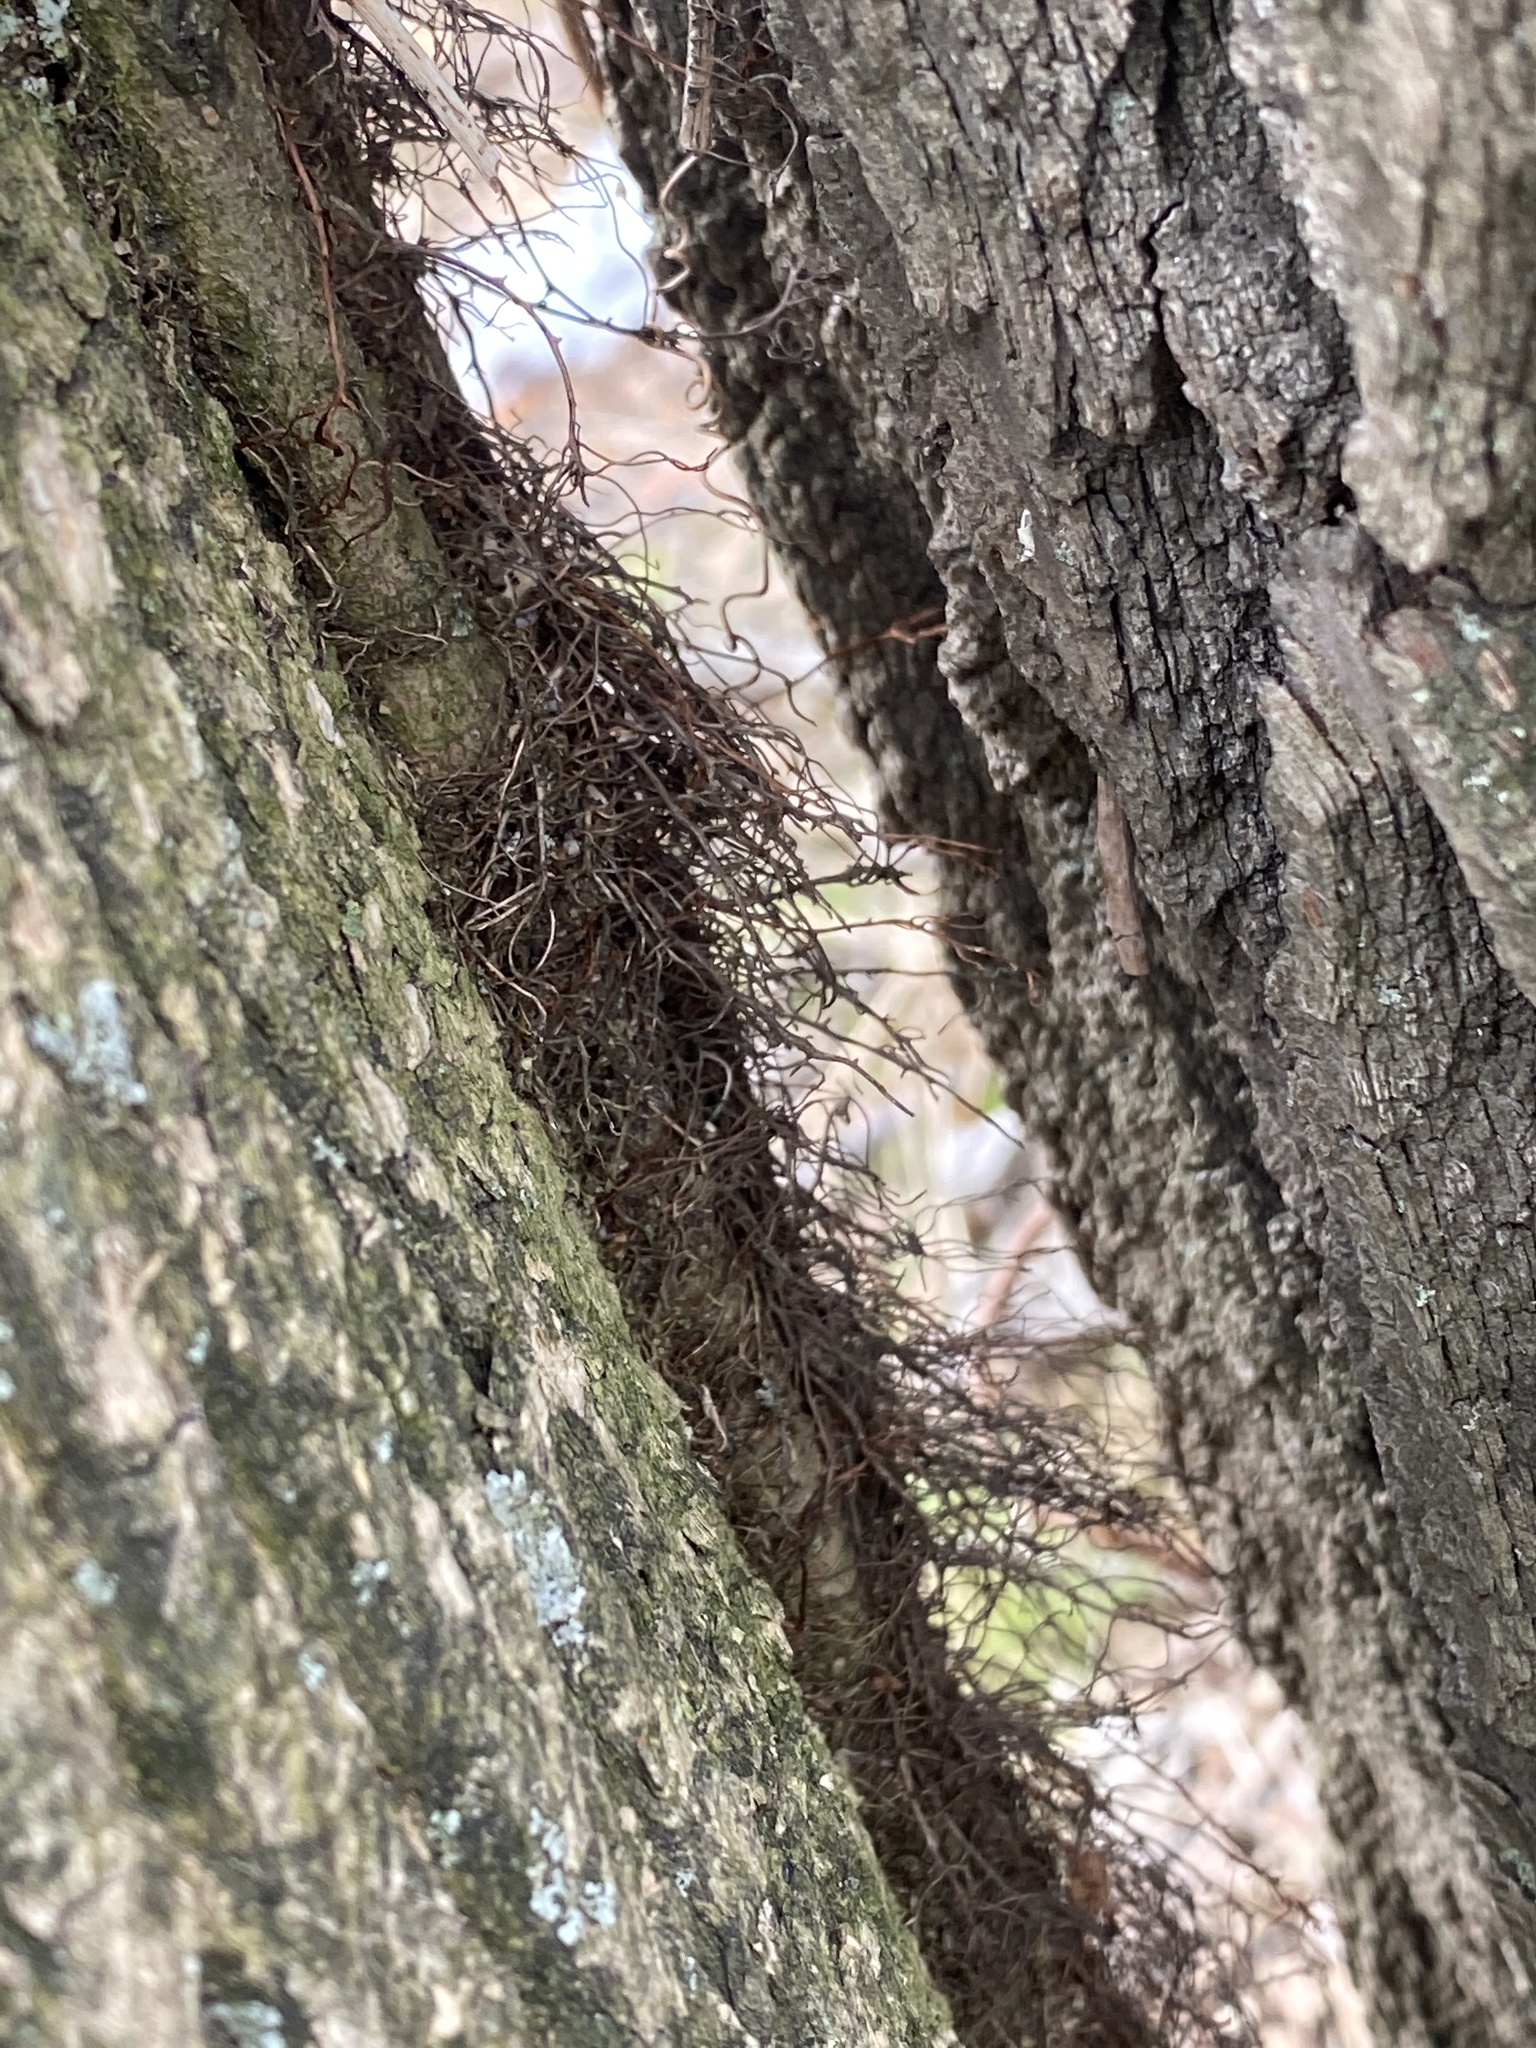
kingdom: Plantae
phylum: Tracheophyta
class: Magnoliopsida
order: Sapindales
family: Anacardiaceae
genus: Toxicodendron
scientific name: Toxicodendron radicans
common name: Poison ivy
